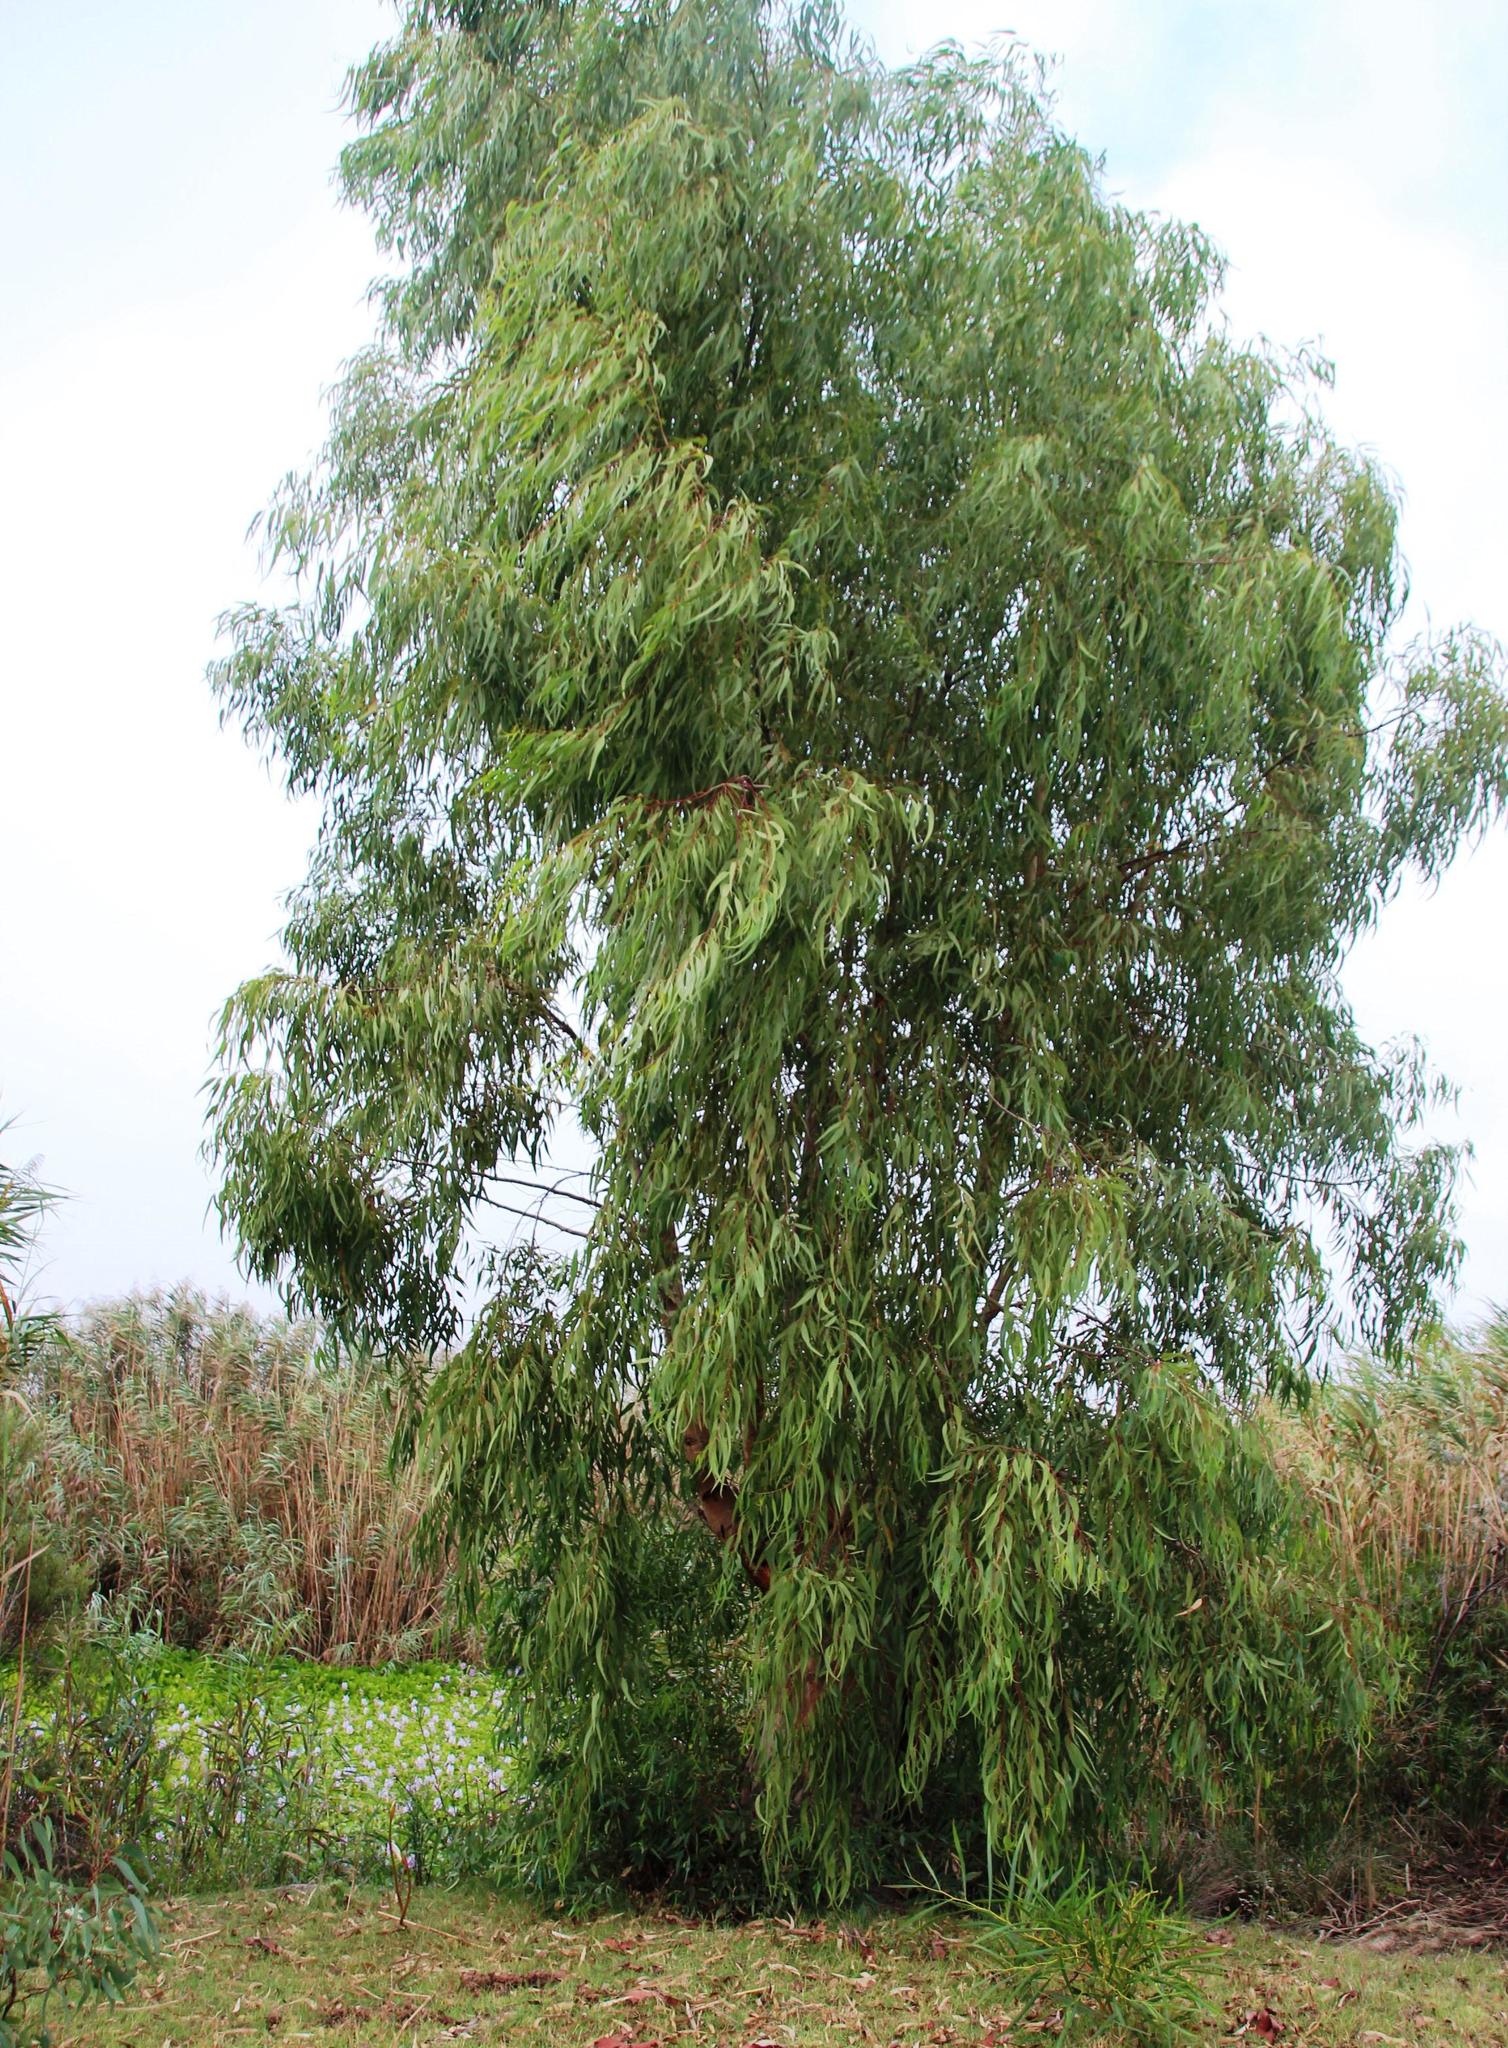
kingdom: Plantae
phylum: Tracheophyta
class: Magnoliopsida
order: Myrtales
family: Myrtaceae
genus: Eucalyptus
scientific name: Eucalyptus camaldulensis
